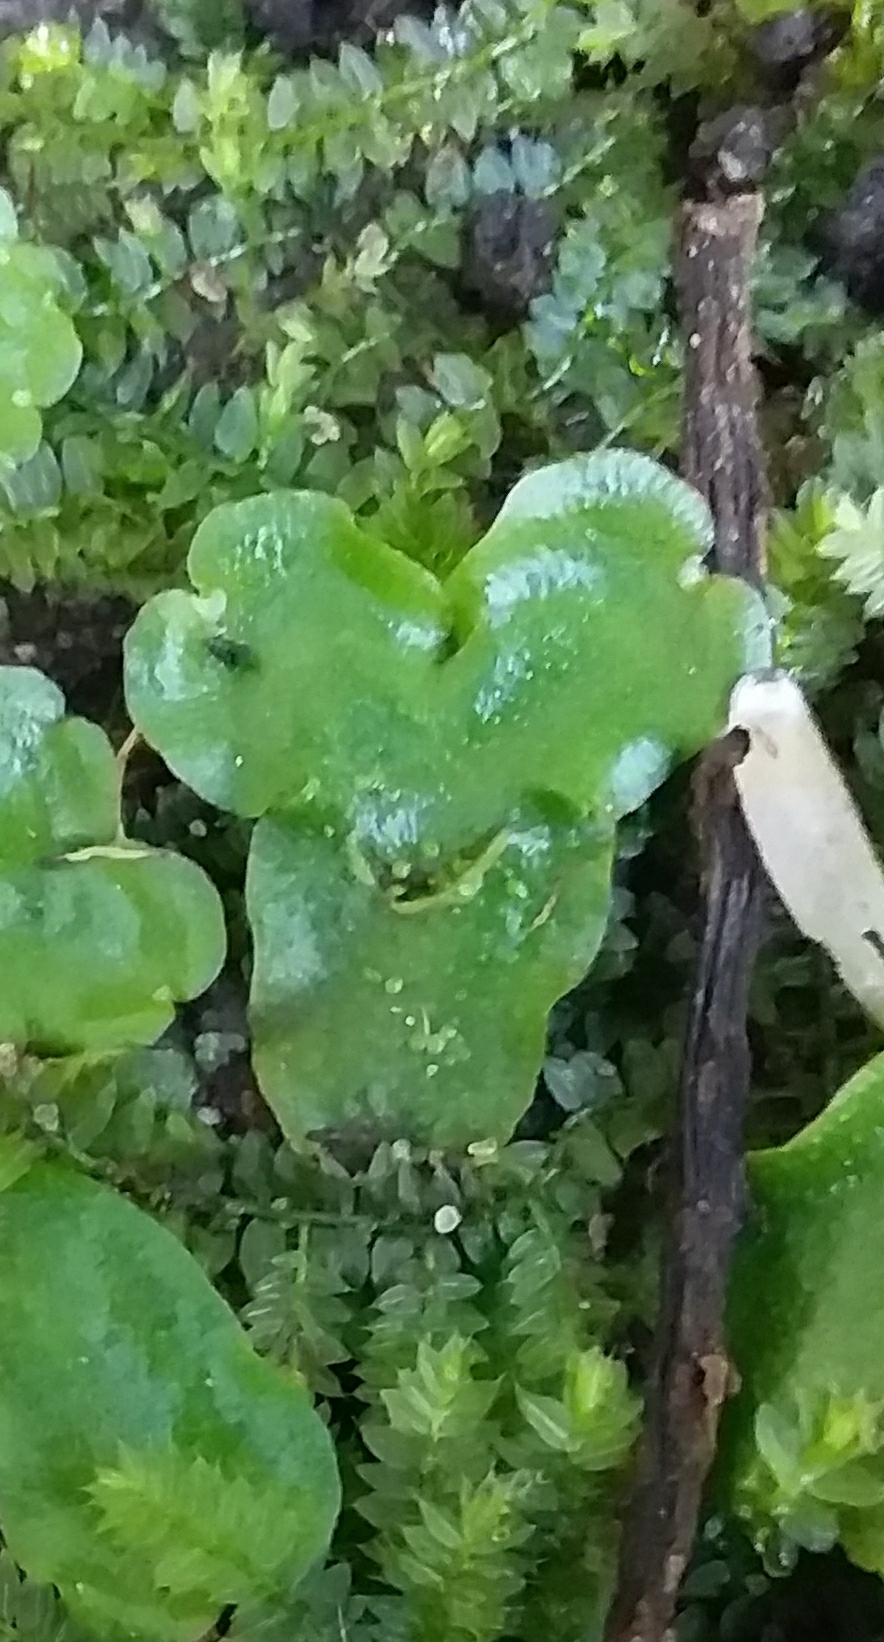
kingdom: Plantae
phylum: Marchantiophyta
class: Marchantiopsida
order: Lunulariales
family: Lunulariaceae
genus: Lunularia
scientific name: Lunularia cruciata
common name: Crescent-cup liverwort
